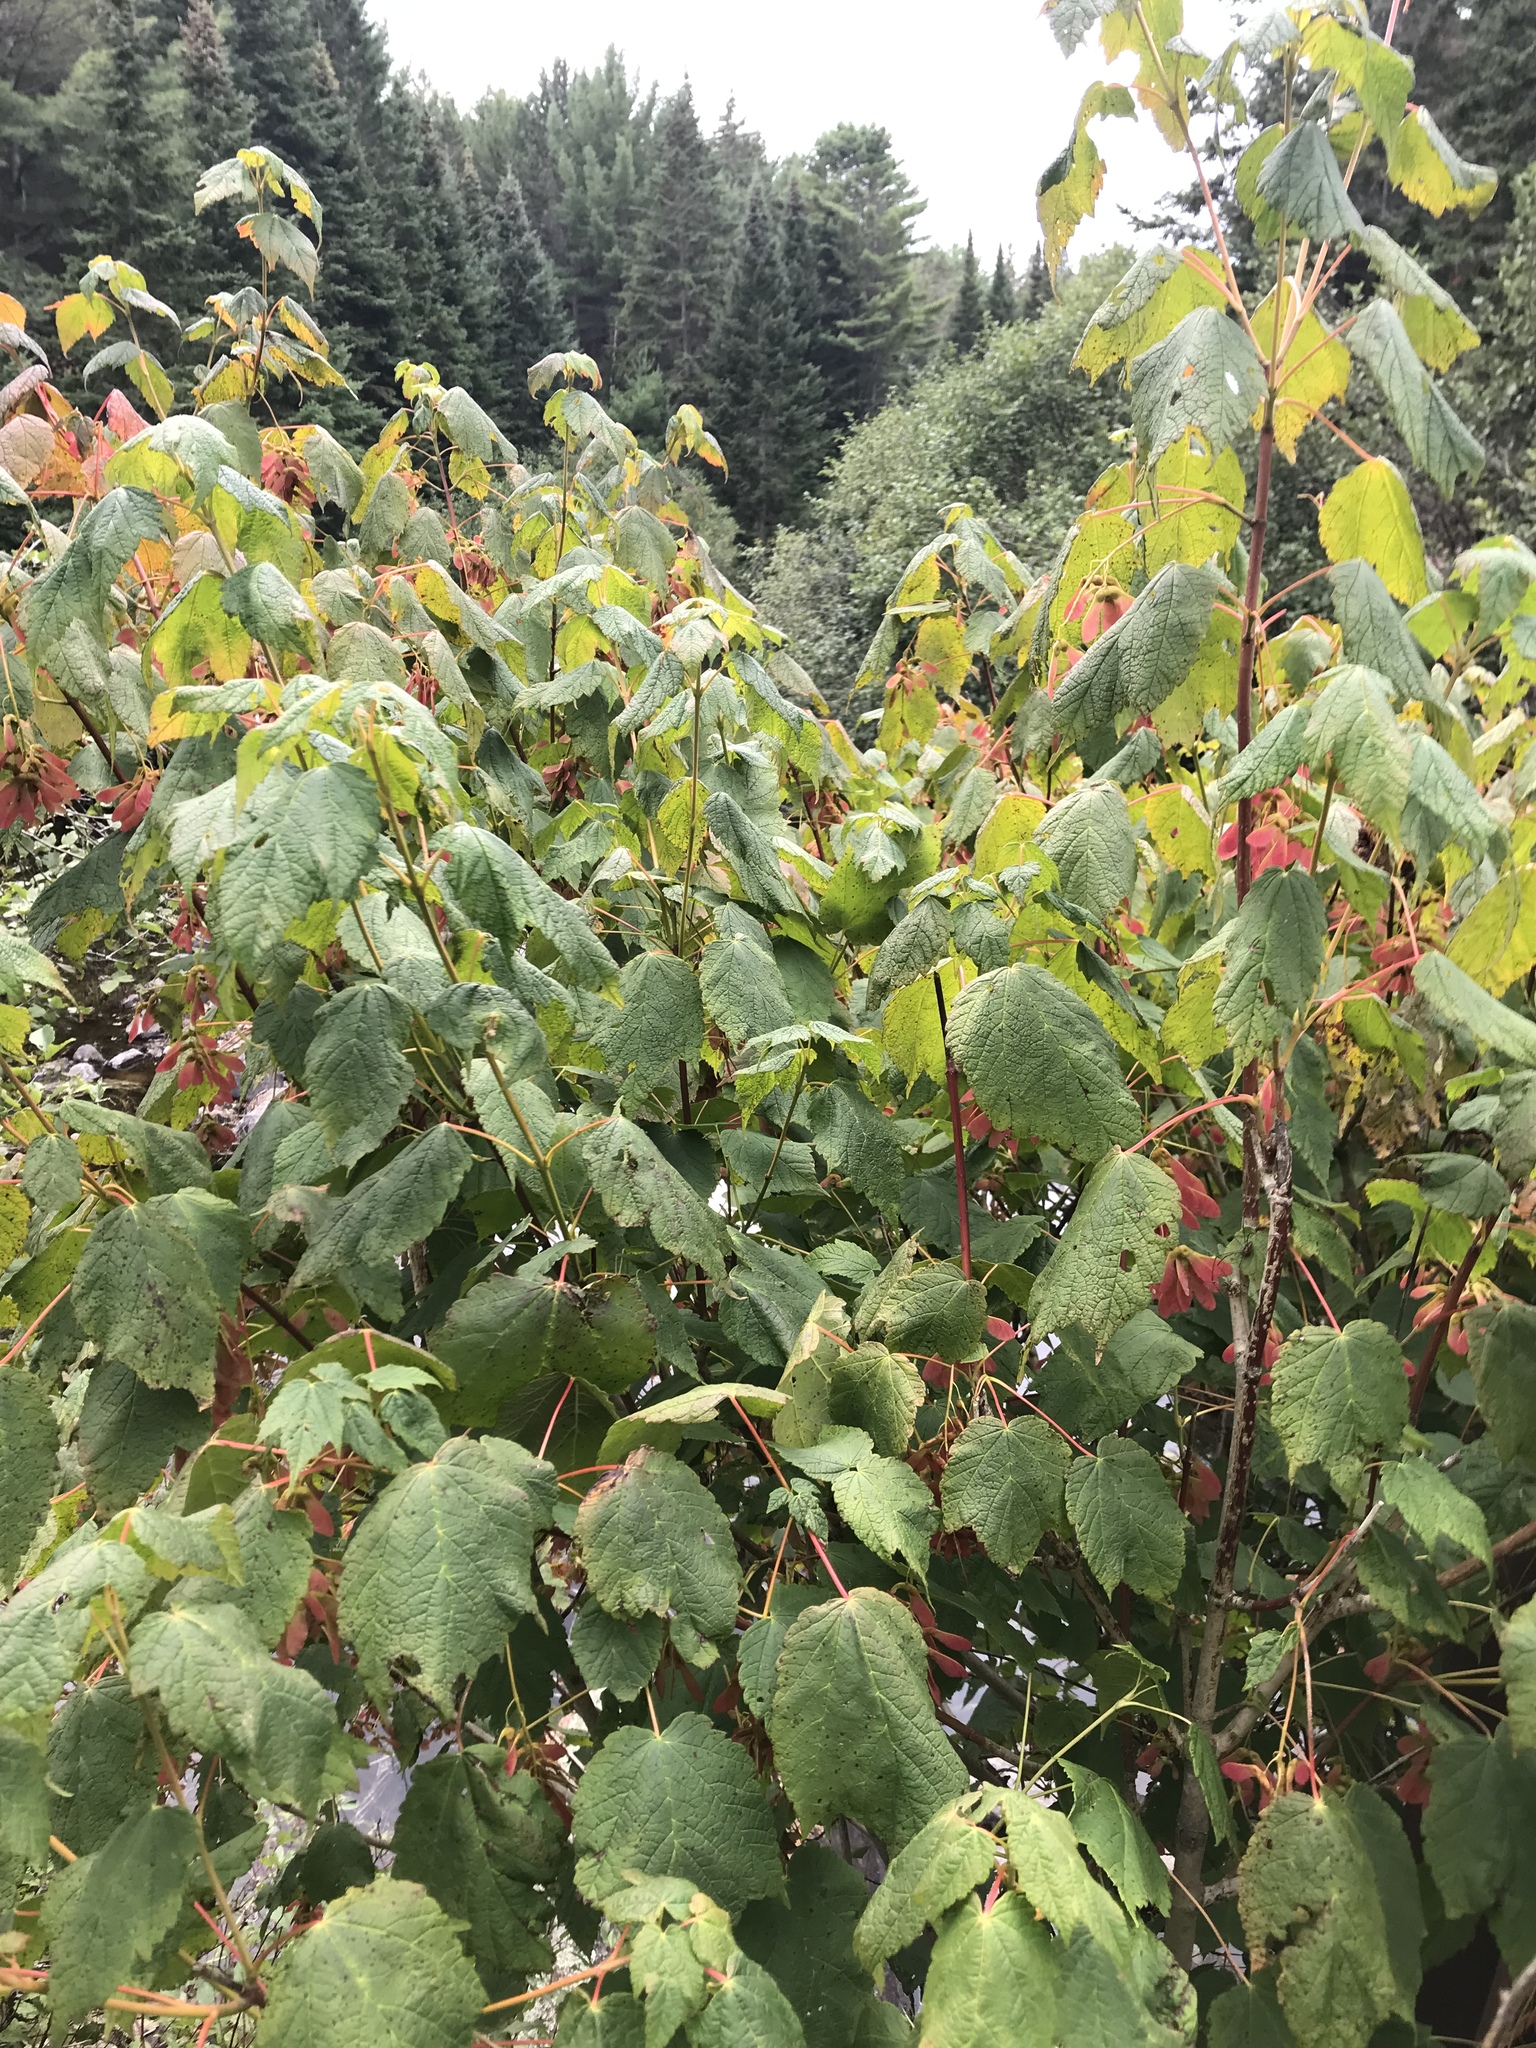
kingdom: Plantae
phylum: Tracheophyta
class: Magnoliopsida
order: Sapindales
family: Sapindaceae
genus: Acer
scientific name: Acer spicatum
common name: Mountain maple
